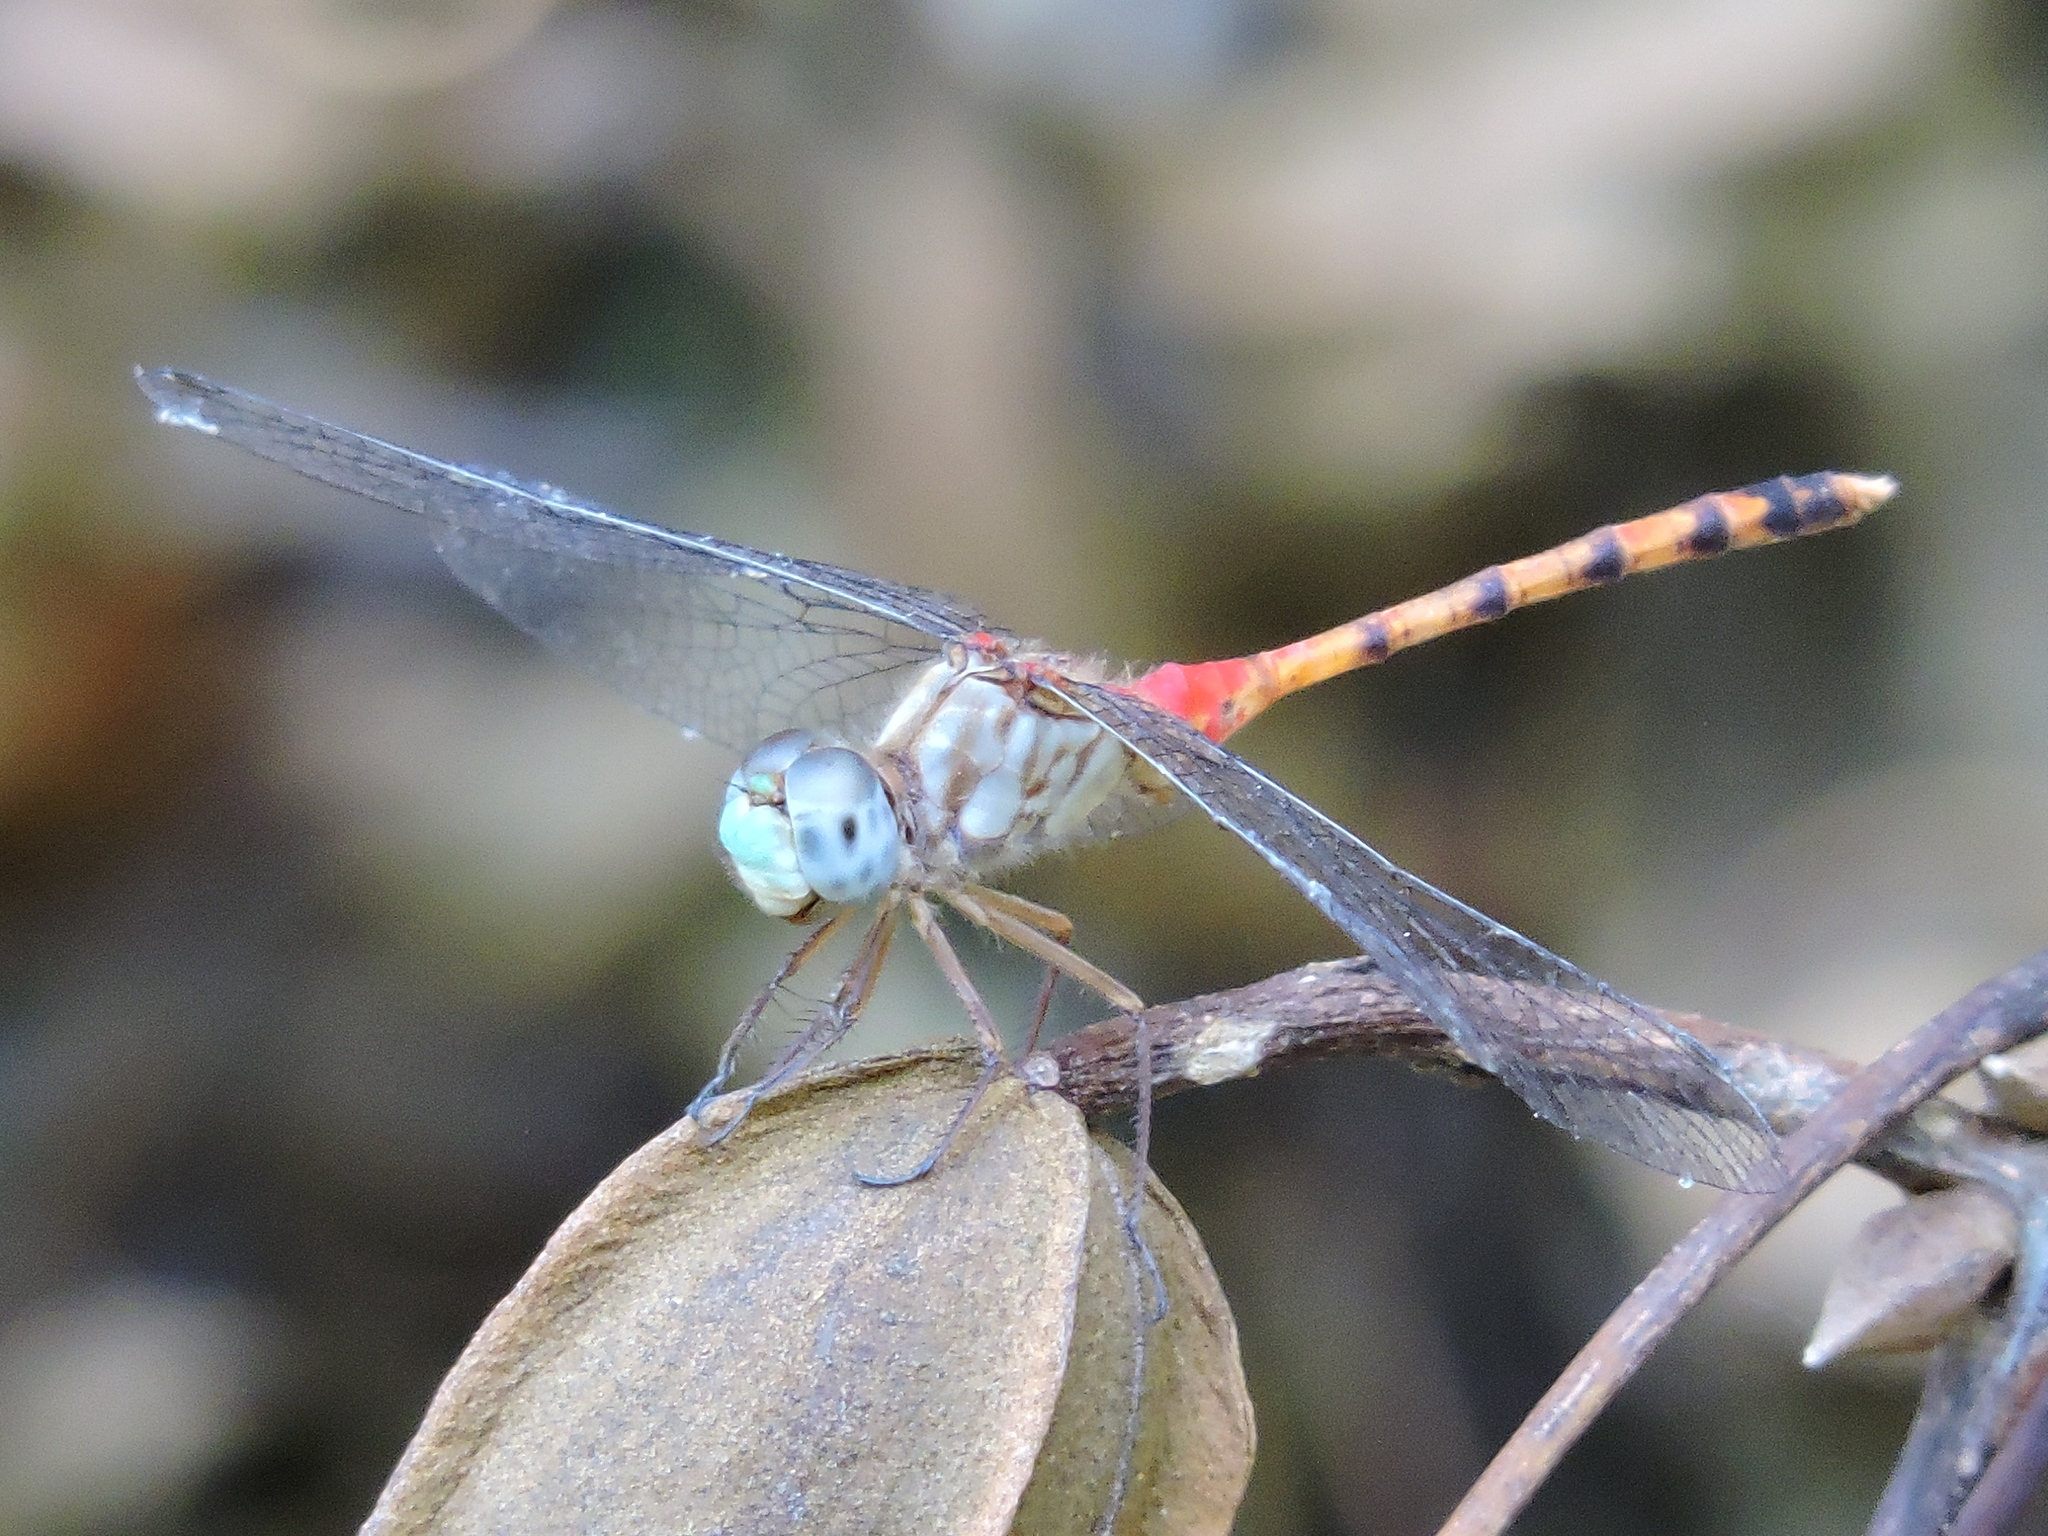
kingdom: Animalia
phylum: Arthropoda
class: Insecta
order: Odonata
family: Libellulidae
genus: Sympetrum
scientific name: Sympetrum ambiguum
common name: Blue-faced meadowhawk
